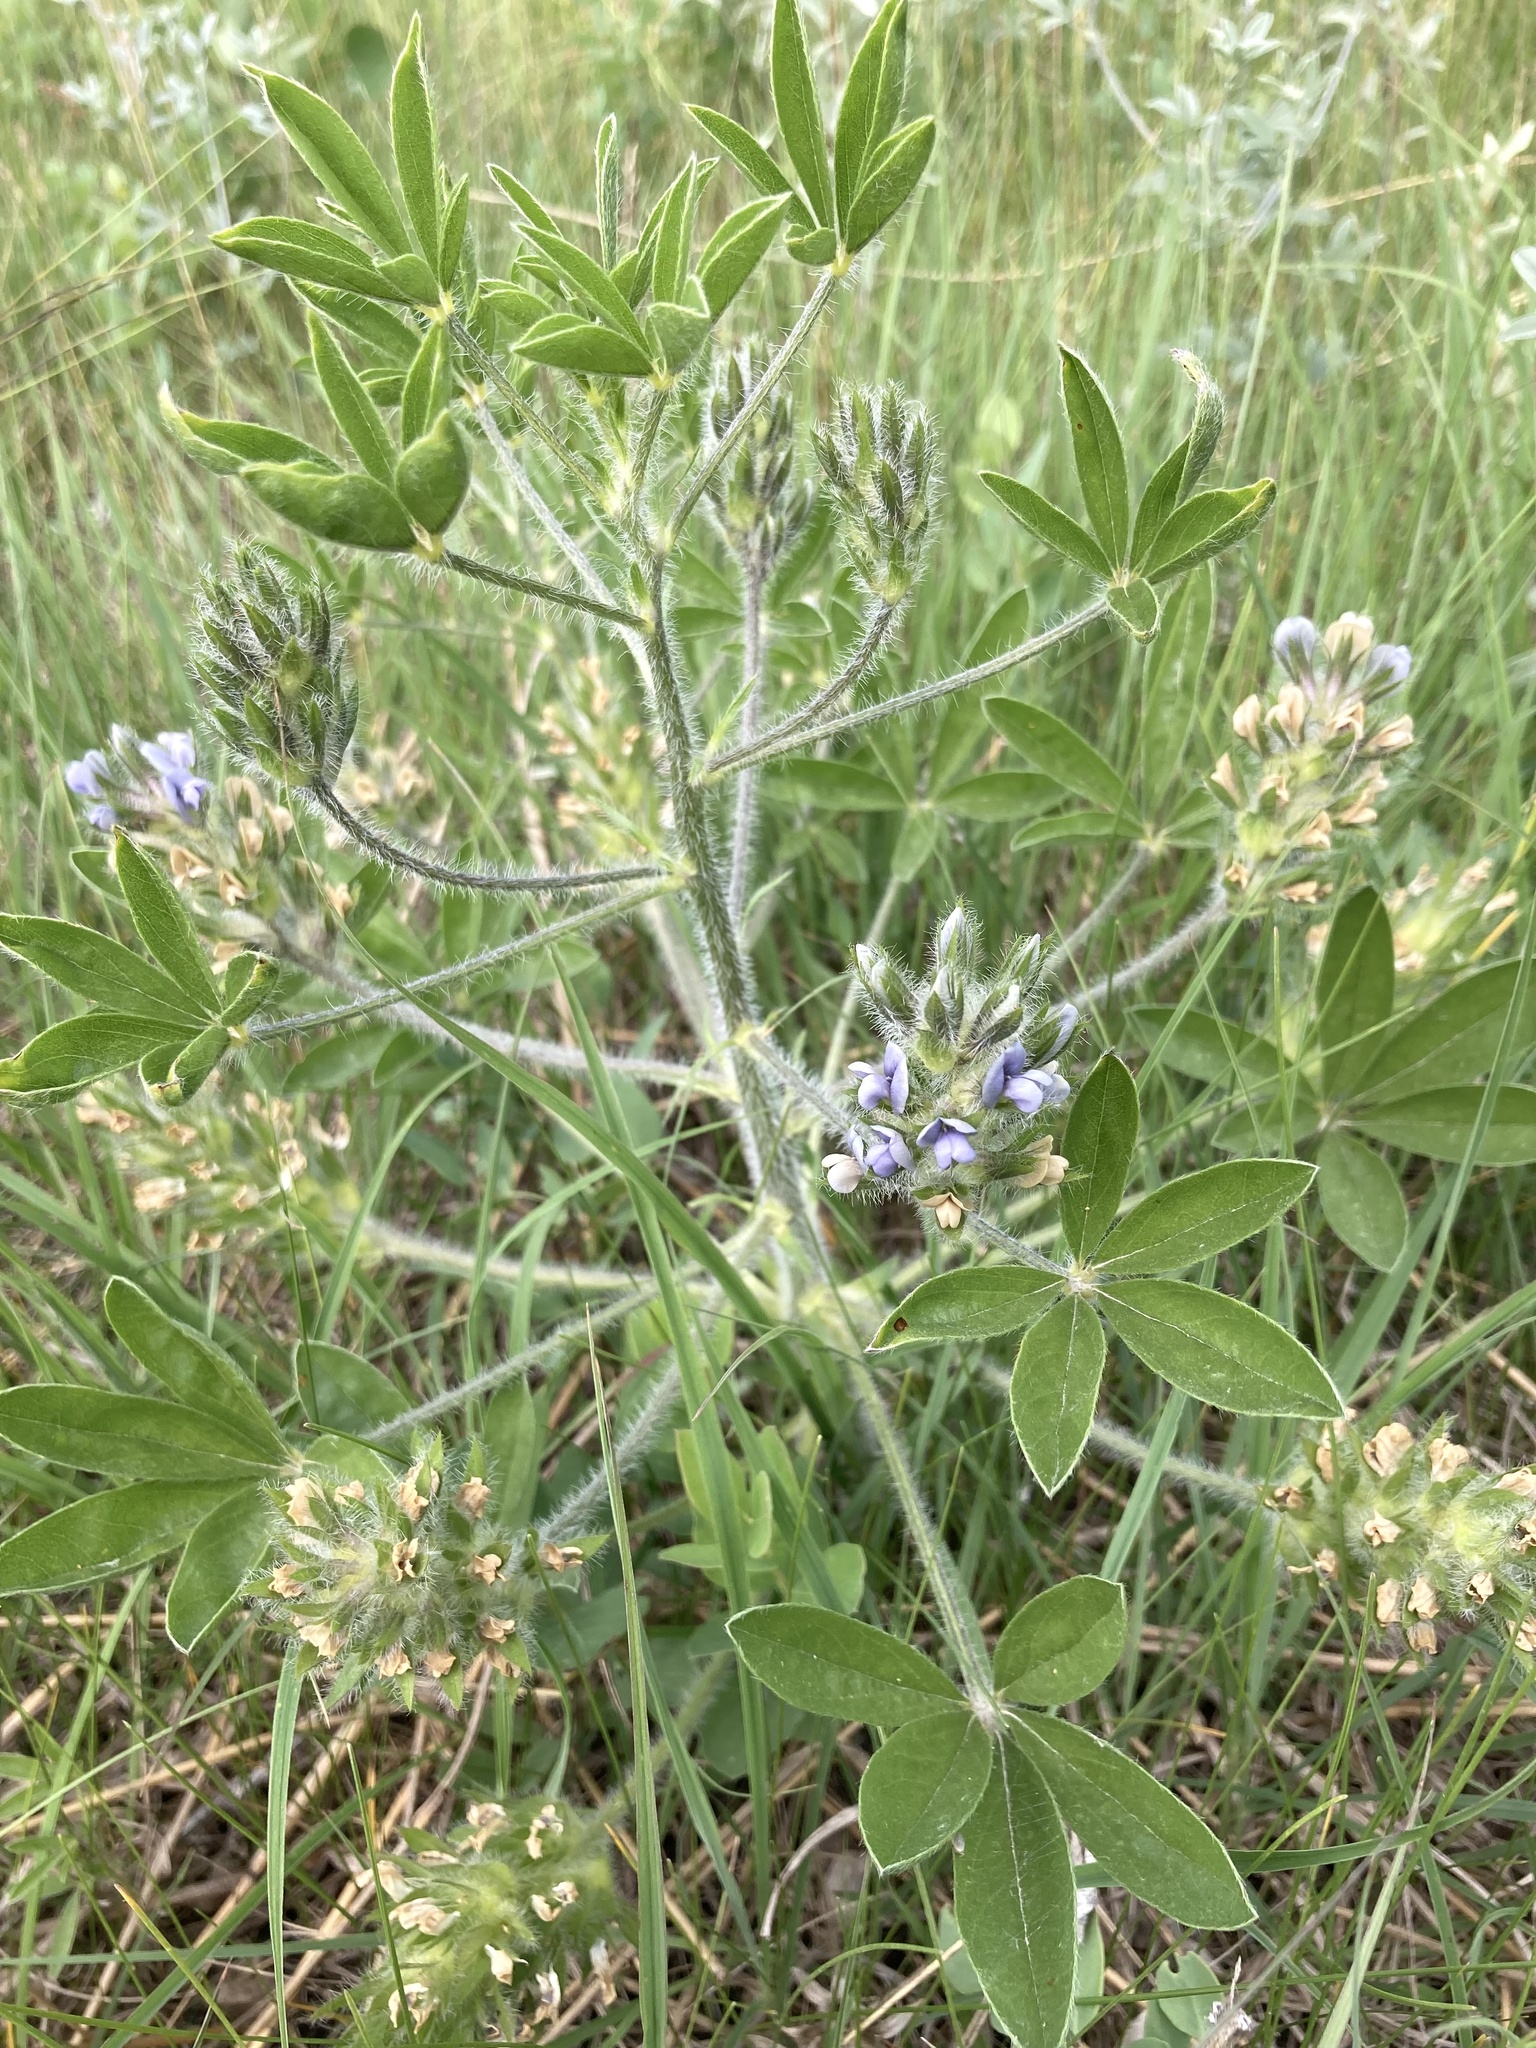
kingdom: Plantae
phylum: Tracheophyta
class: Magnoliopsida
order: Fabales
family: Fabaceae
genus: Pediomelum
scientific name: Pediomelum esculentum
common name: Indian-turnip
